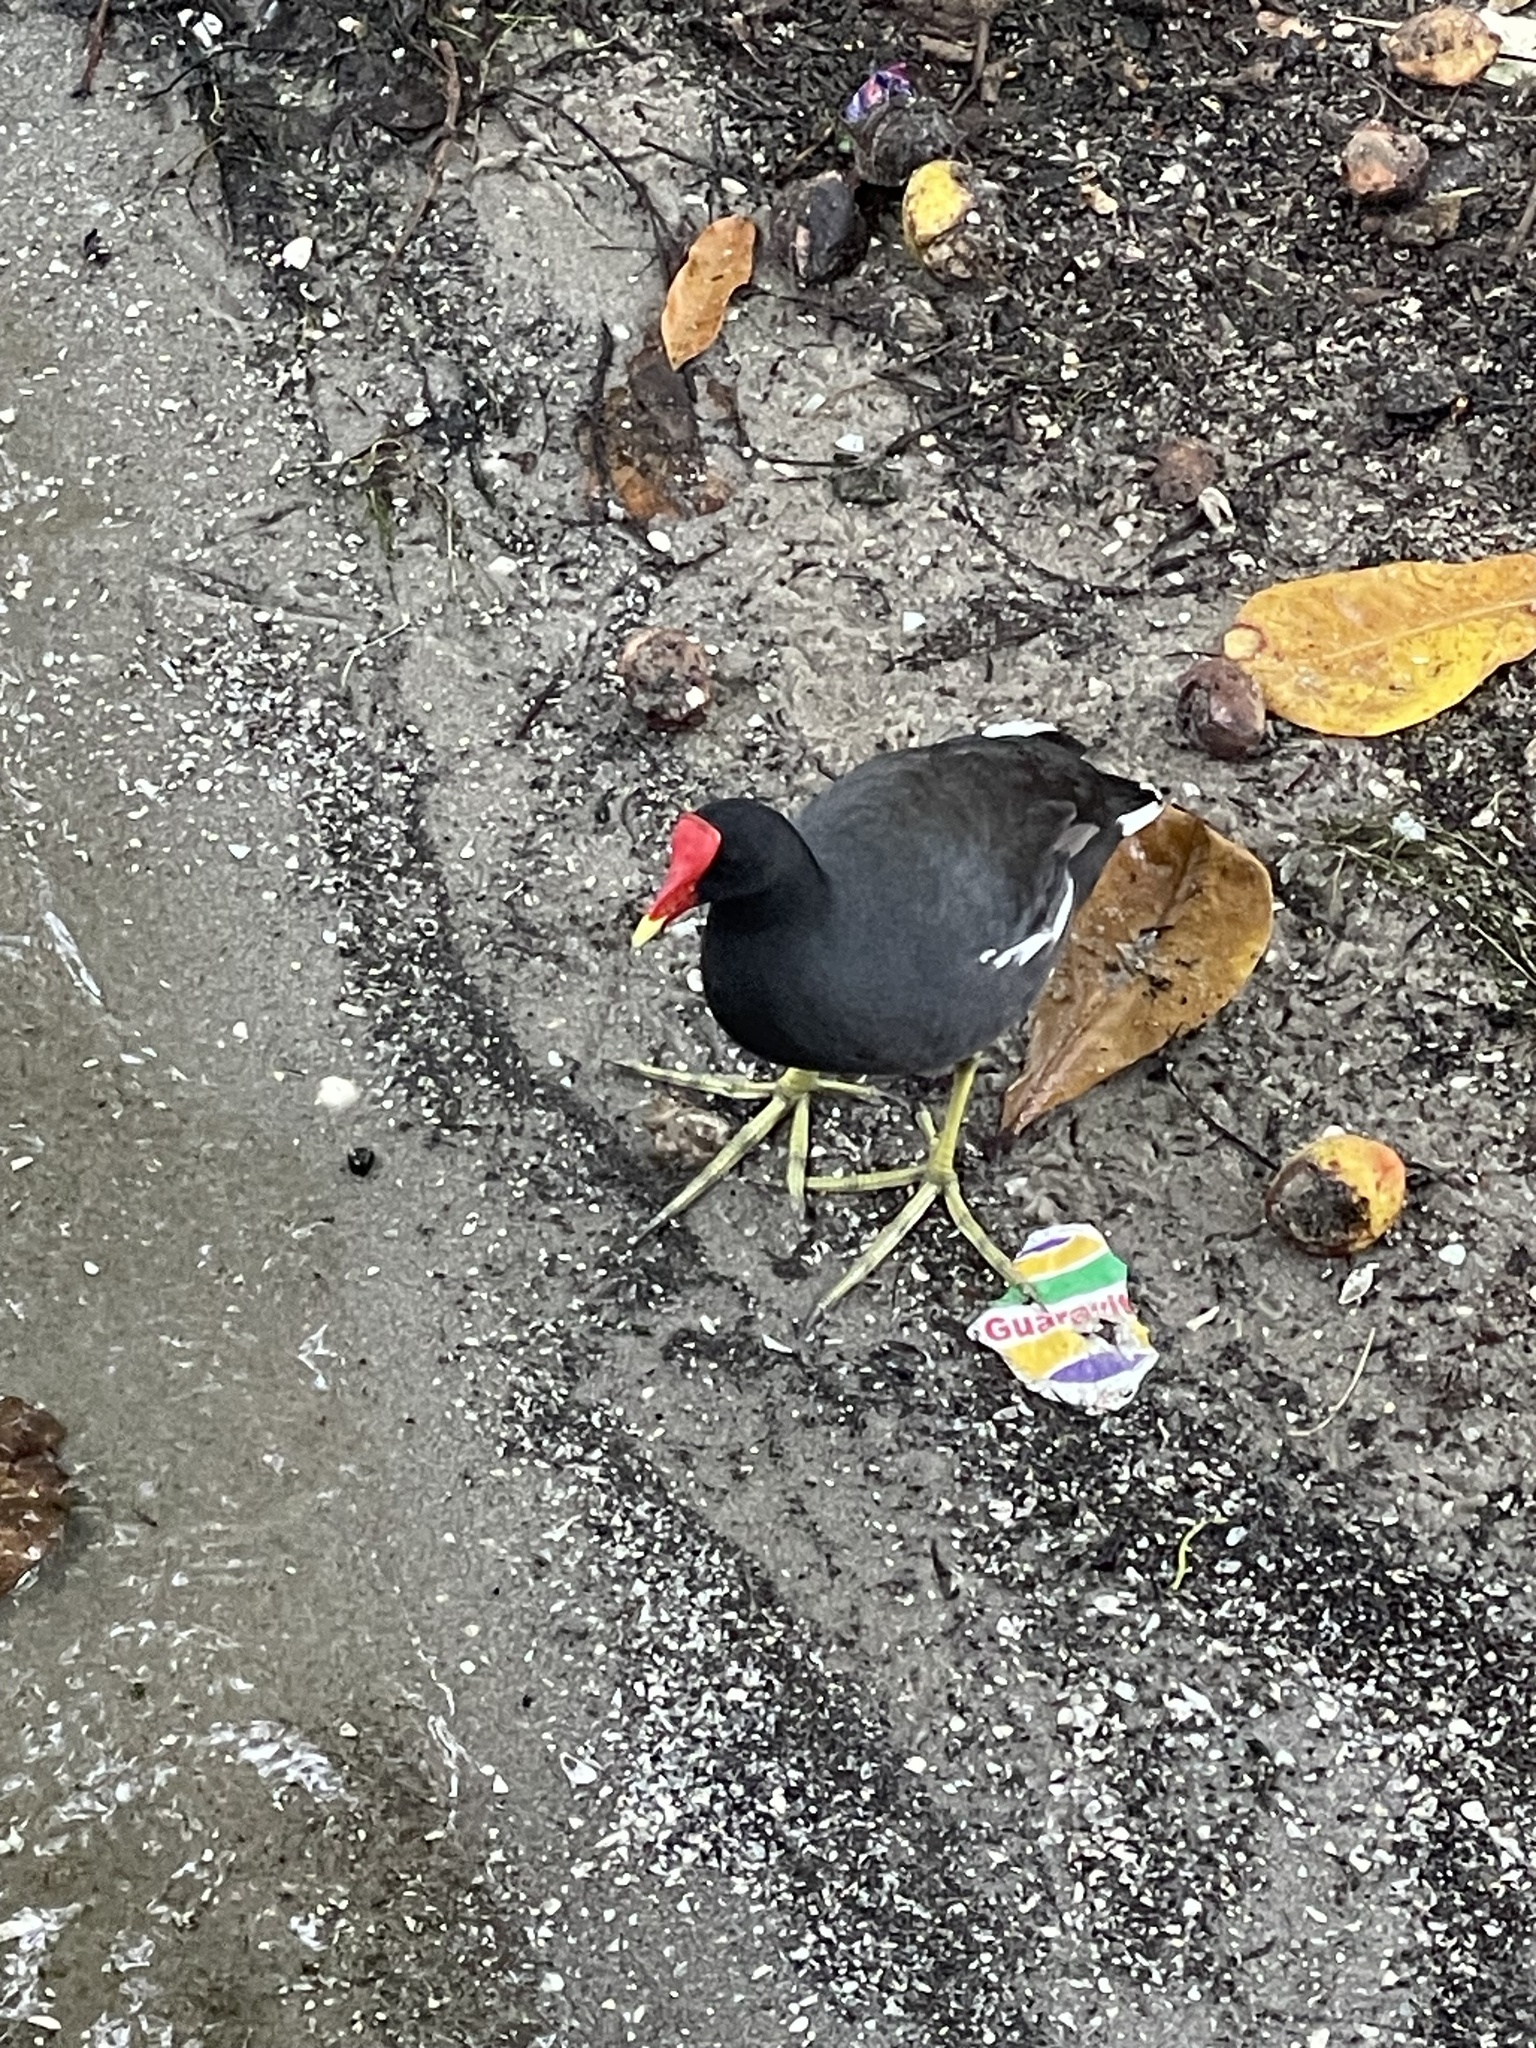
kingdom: Animalia
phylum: Chordata
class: Aves
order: Gruiformes
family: Rallidae
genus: Gallinula
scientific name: Gallinula chloropus
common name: Common moorhen
